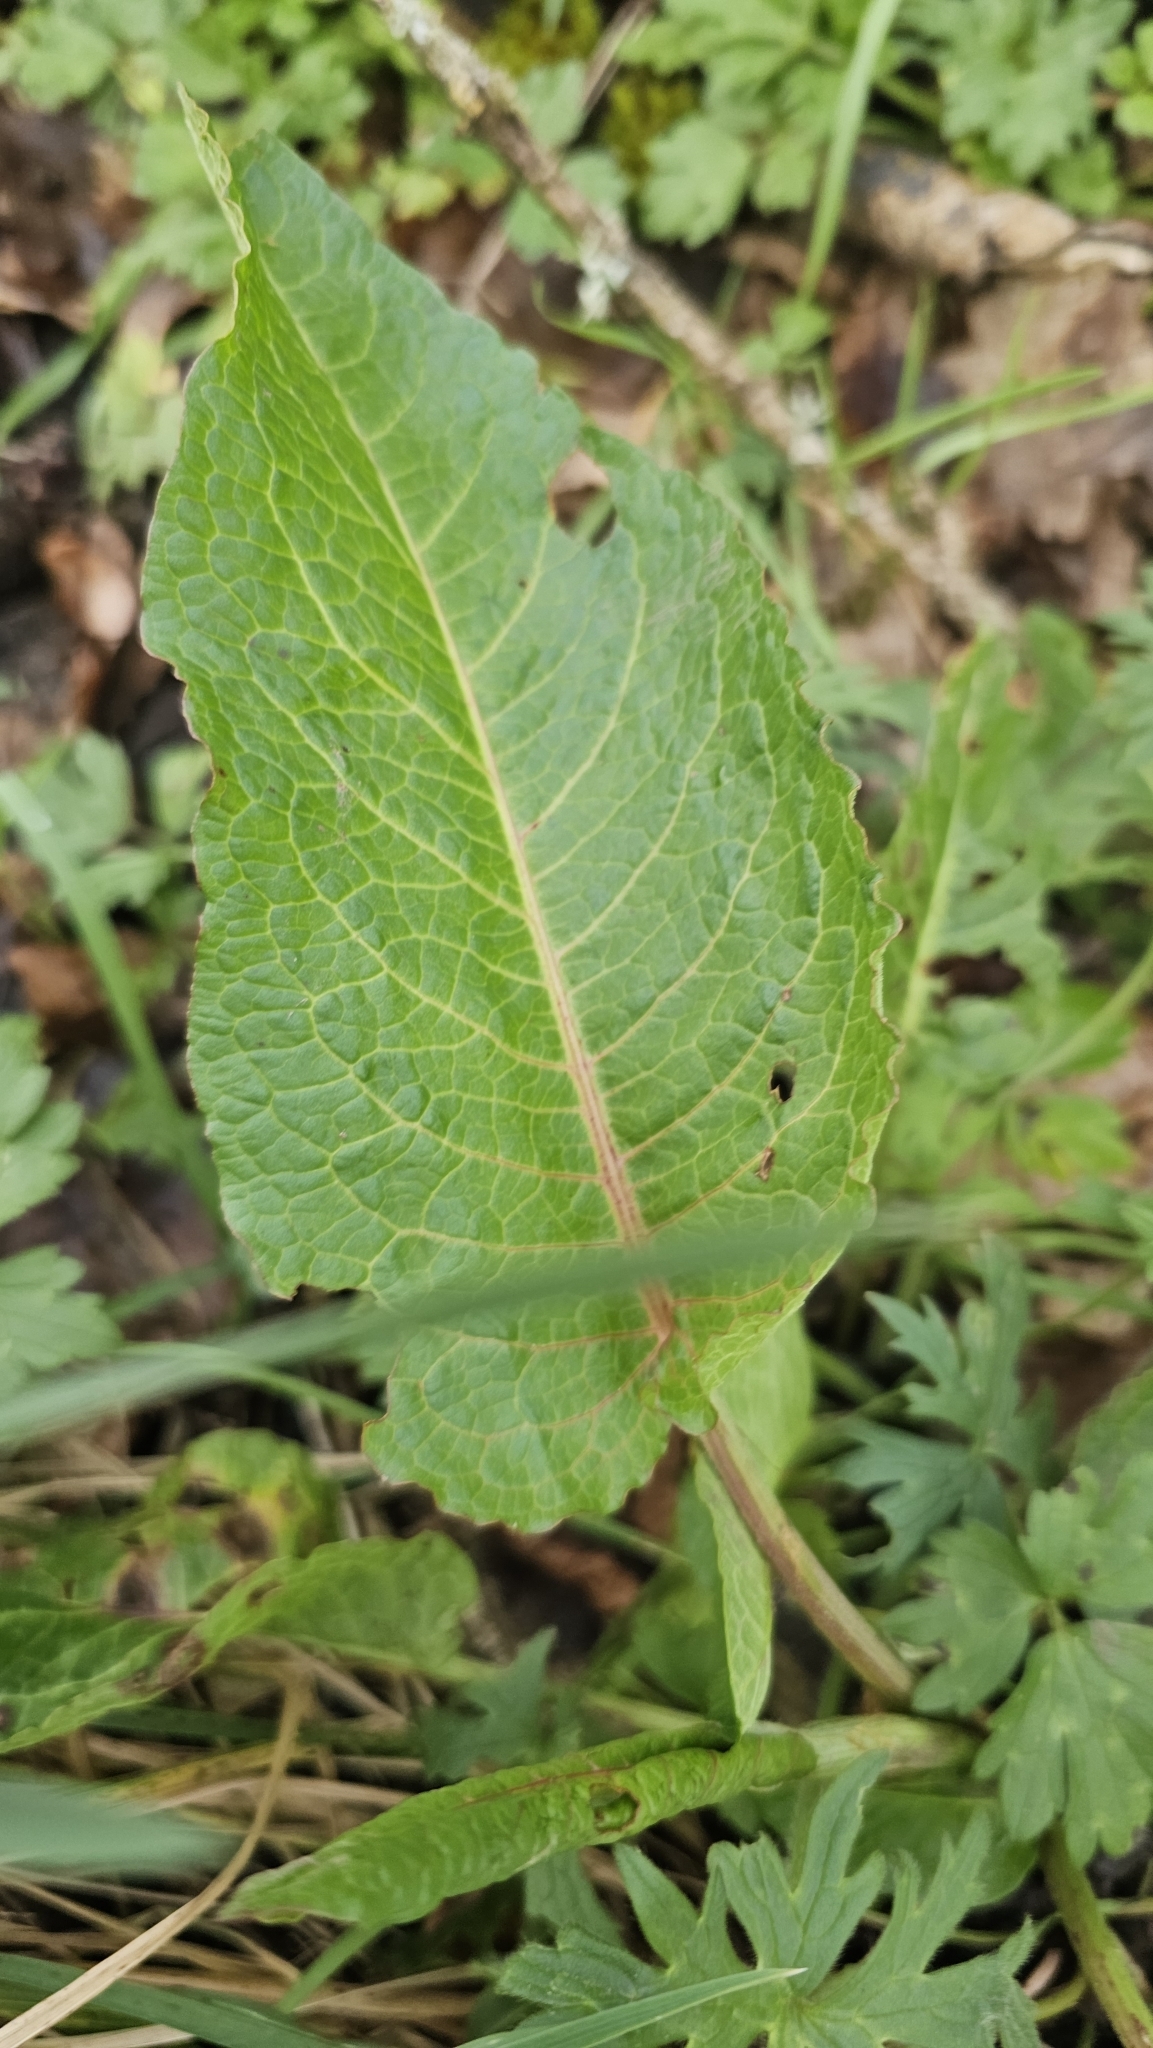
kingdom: Plantae
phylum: Tracheophyta
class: Magnoliopsida
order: Caryophyllales
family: Polygonaceae
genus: Rumex
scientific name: Rumex obtusifolius
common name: Bitter dock
